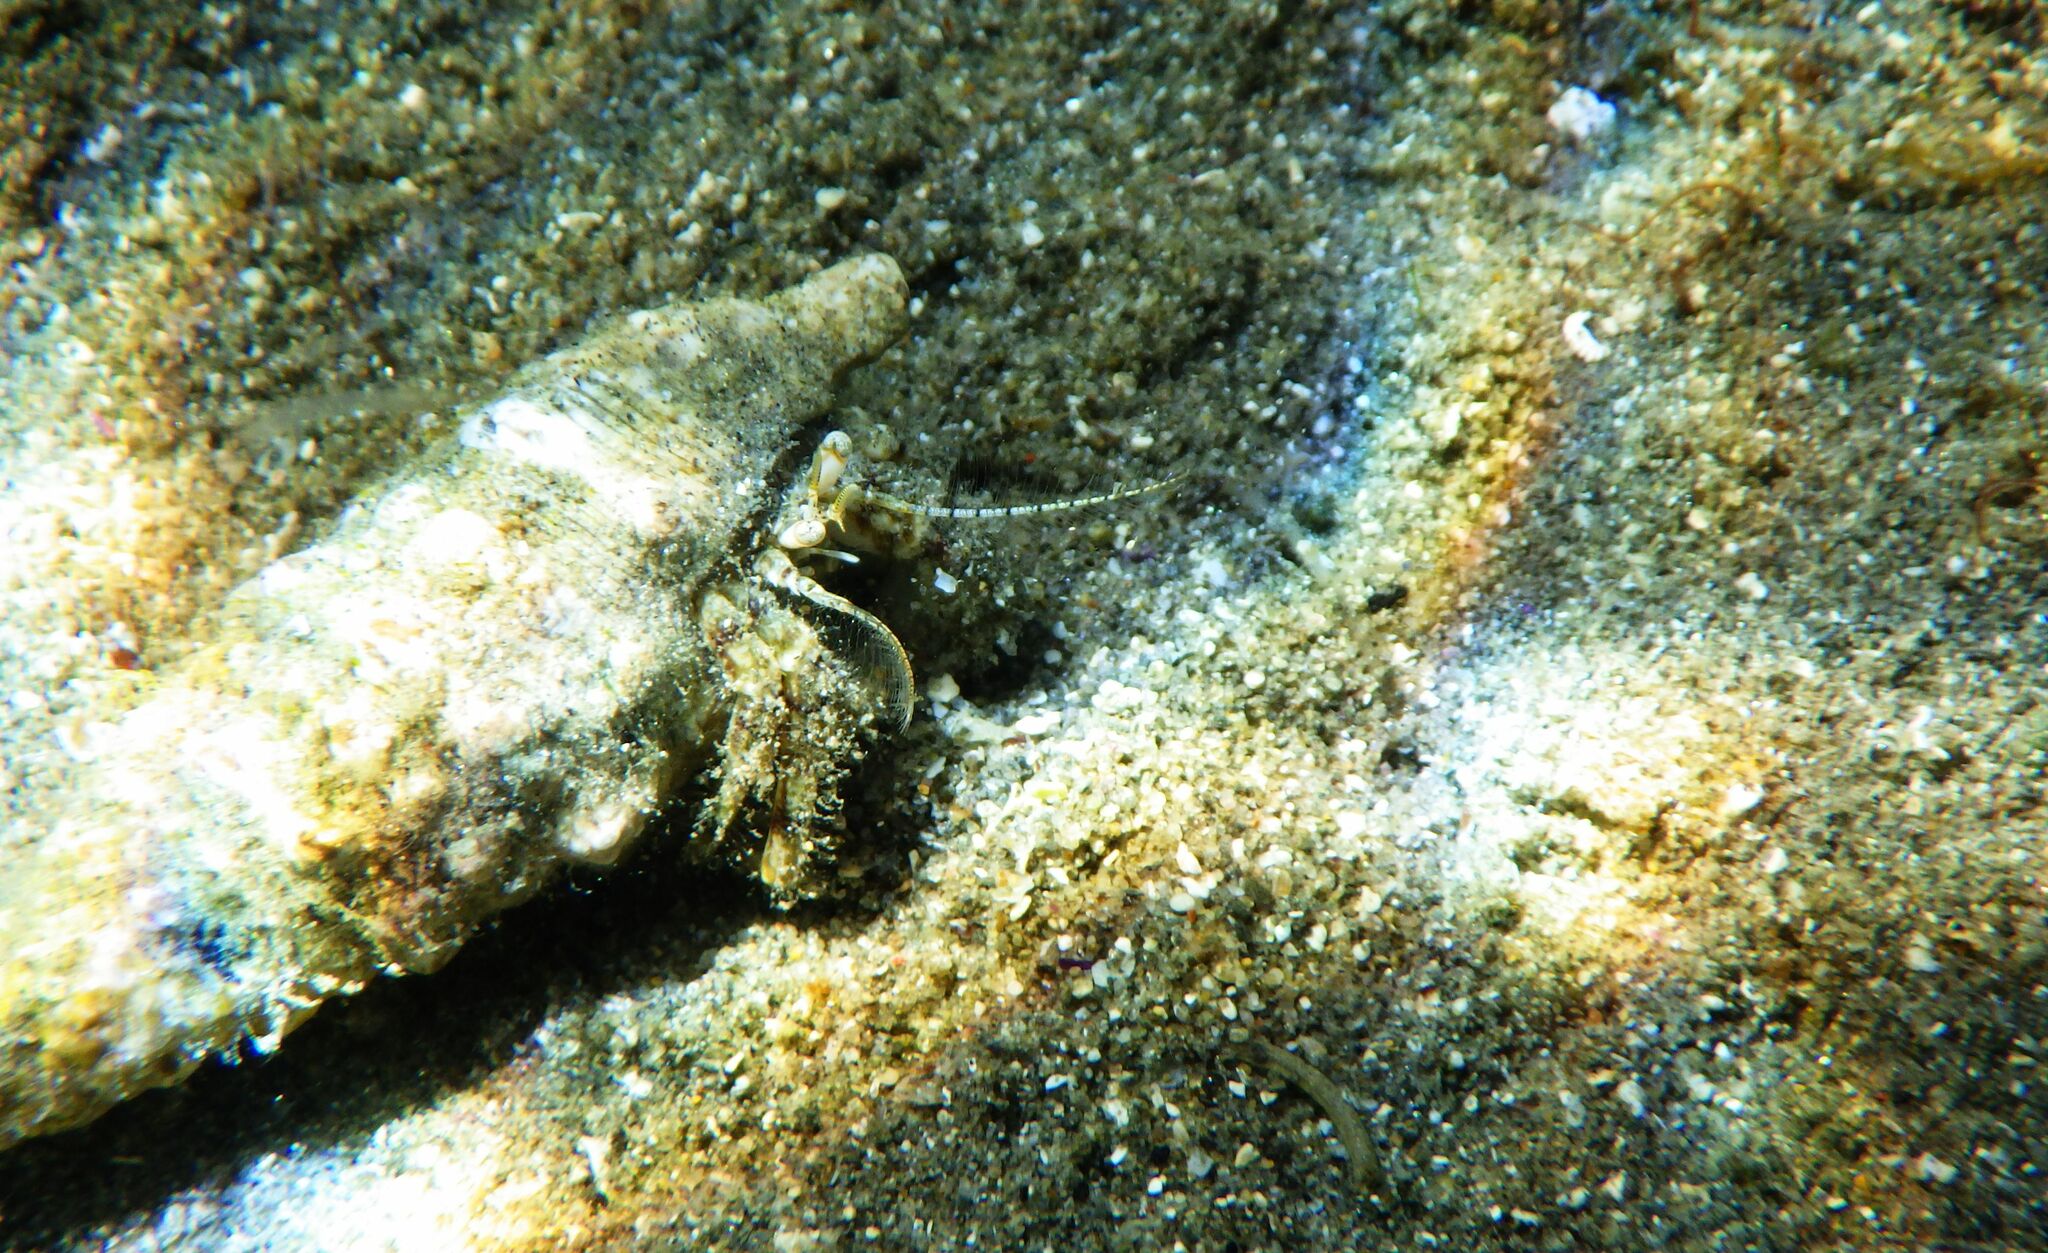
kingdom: Animalia
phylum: Arthropoda
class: Malacostraca
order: Decapoda
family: Diogenidae
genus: Diogenes
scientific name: Diogenes pugilator
